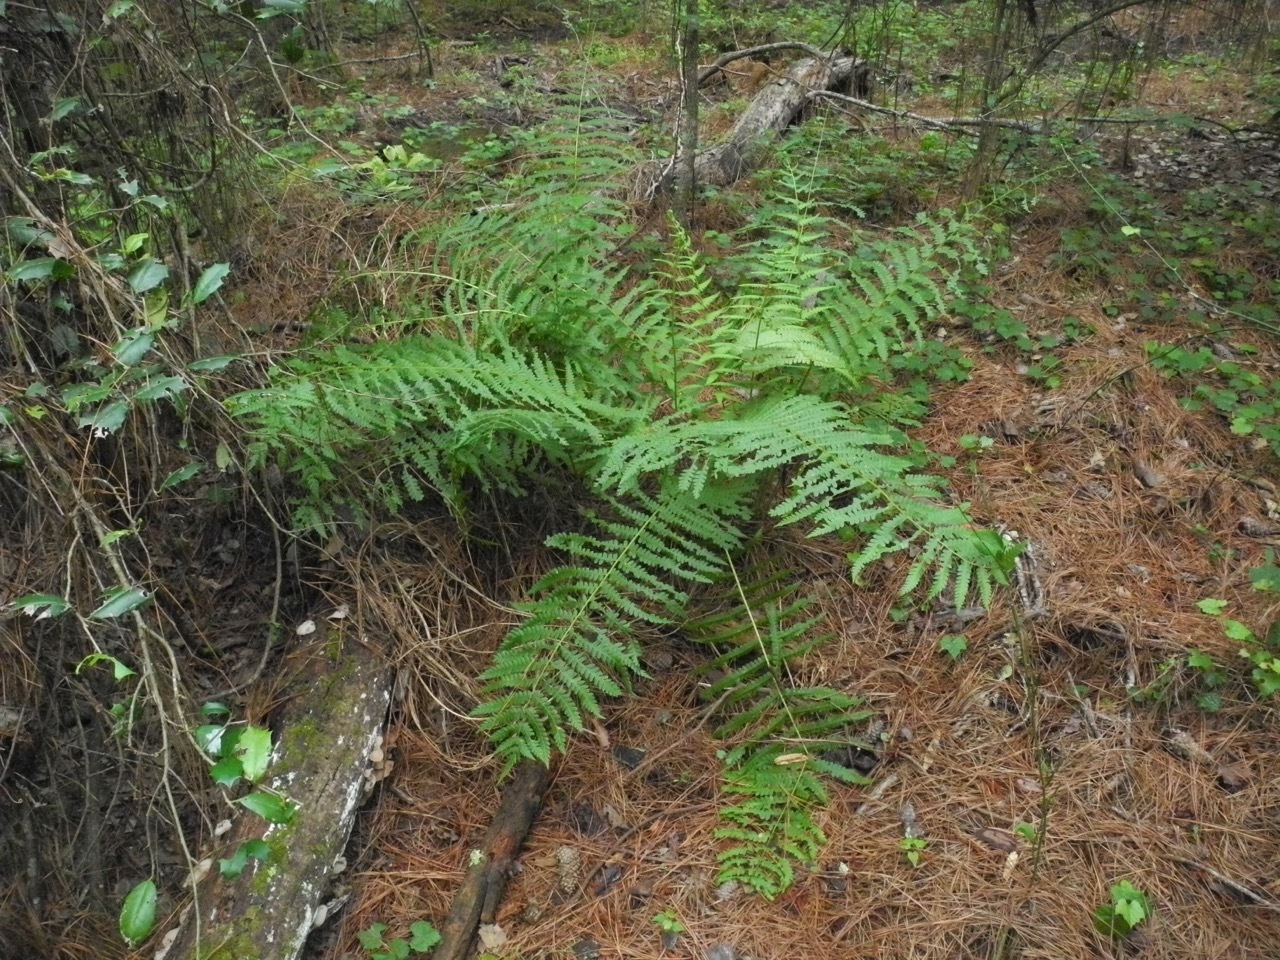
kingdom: Plantae
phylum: Tracheophyta
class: Polypodiopsida
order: Osmundales
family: Osmundaceae
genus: Osmundastrum
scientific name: Osmundastrum cinnamomeum
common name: Cinnamon fern
